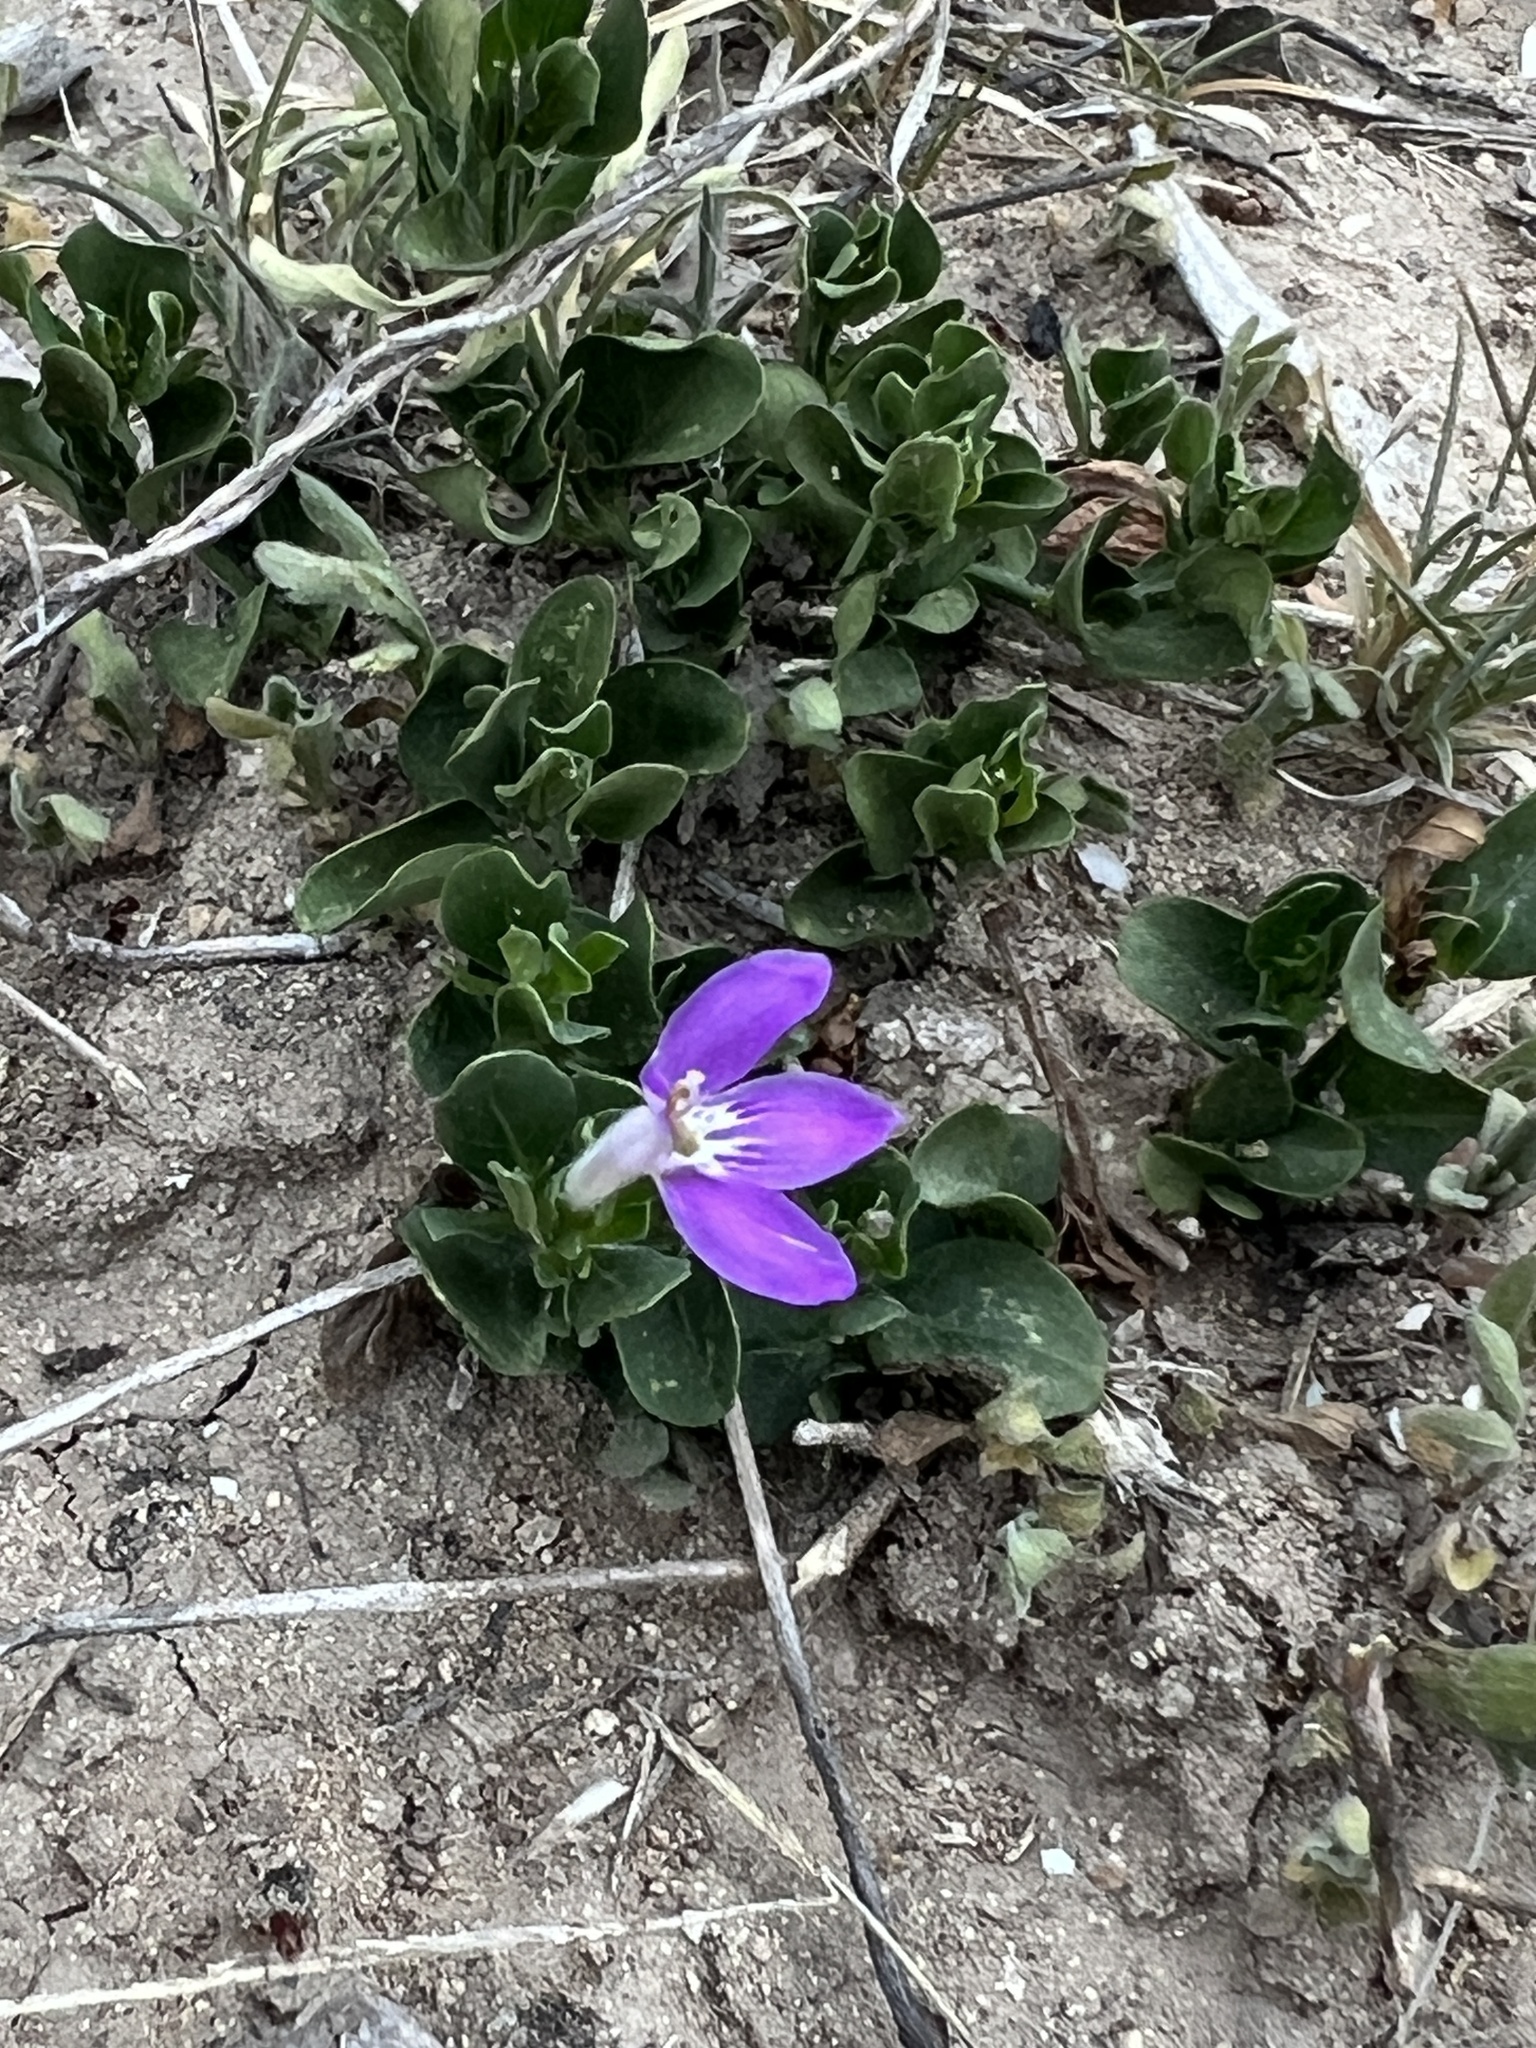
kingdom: Plantae
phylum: Tracheophyta
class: Magnoliopsida
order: Lamiales
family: Acanthaceae
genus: Justicia
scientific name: Justicia pilosella
